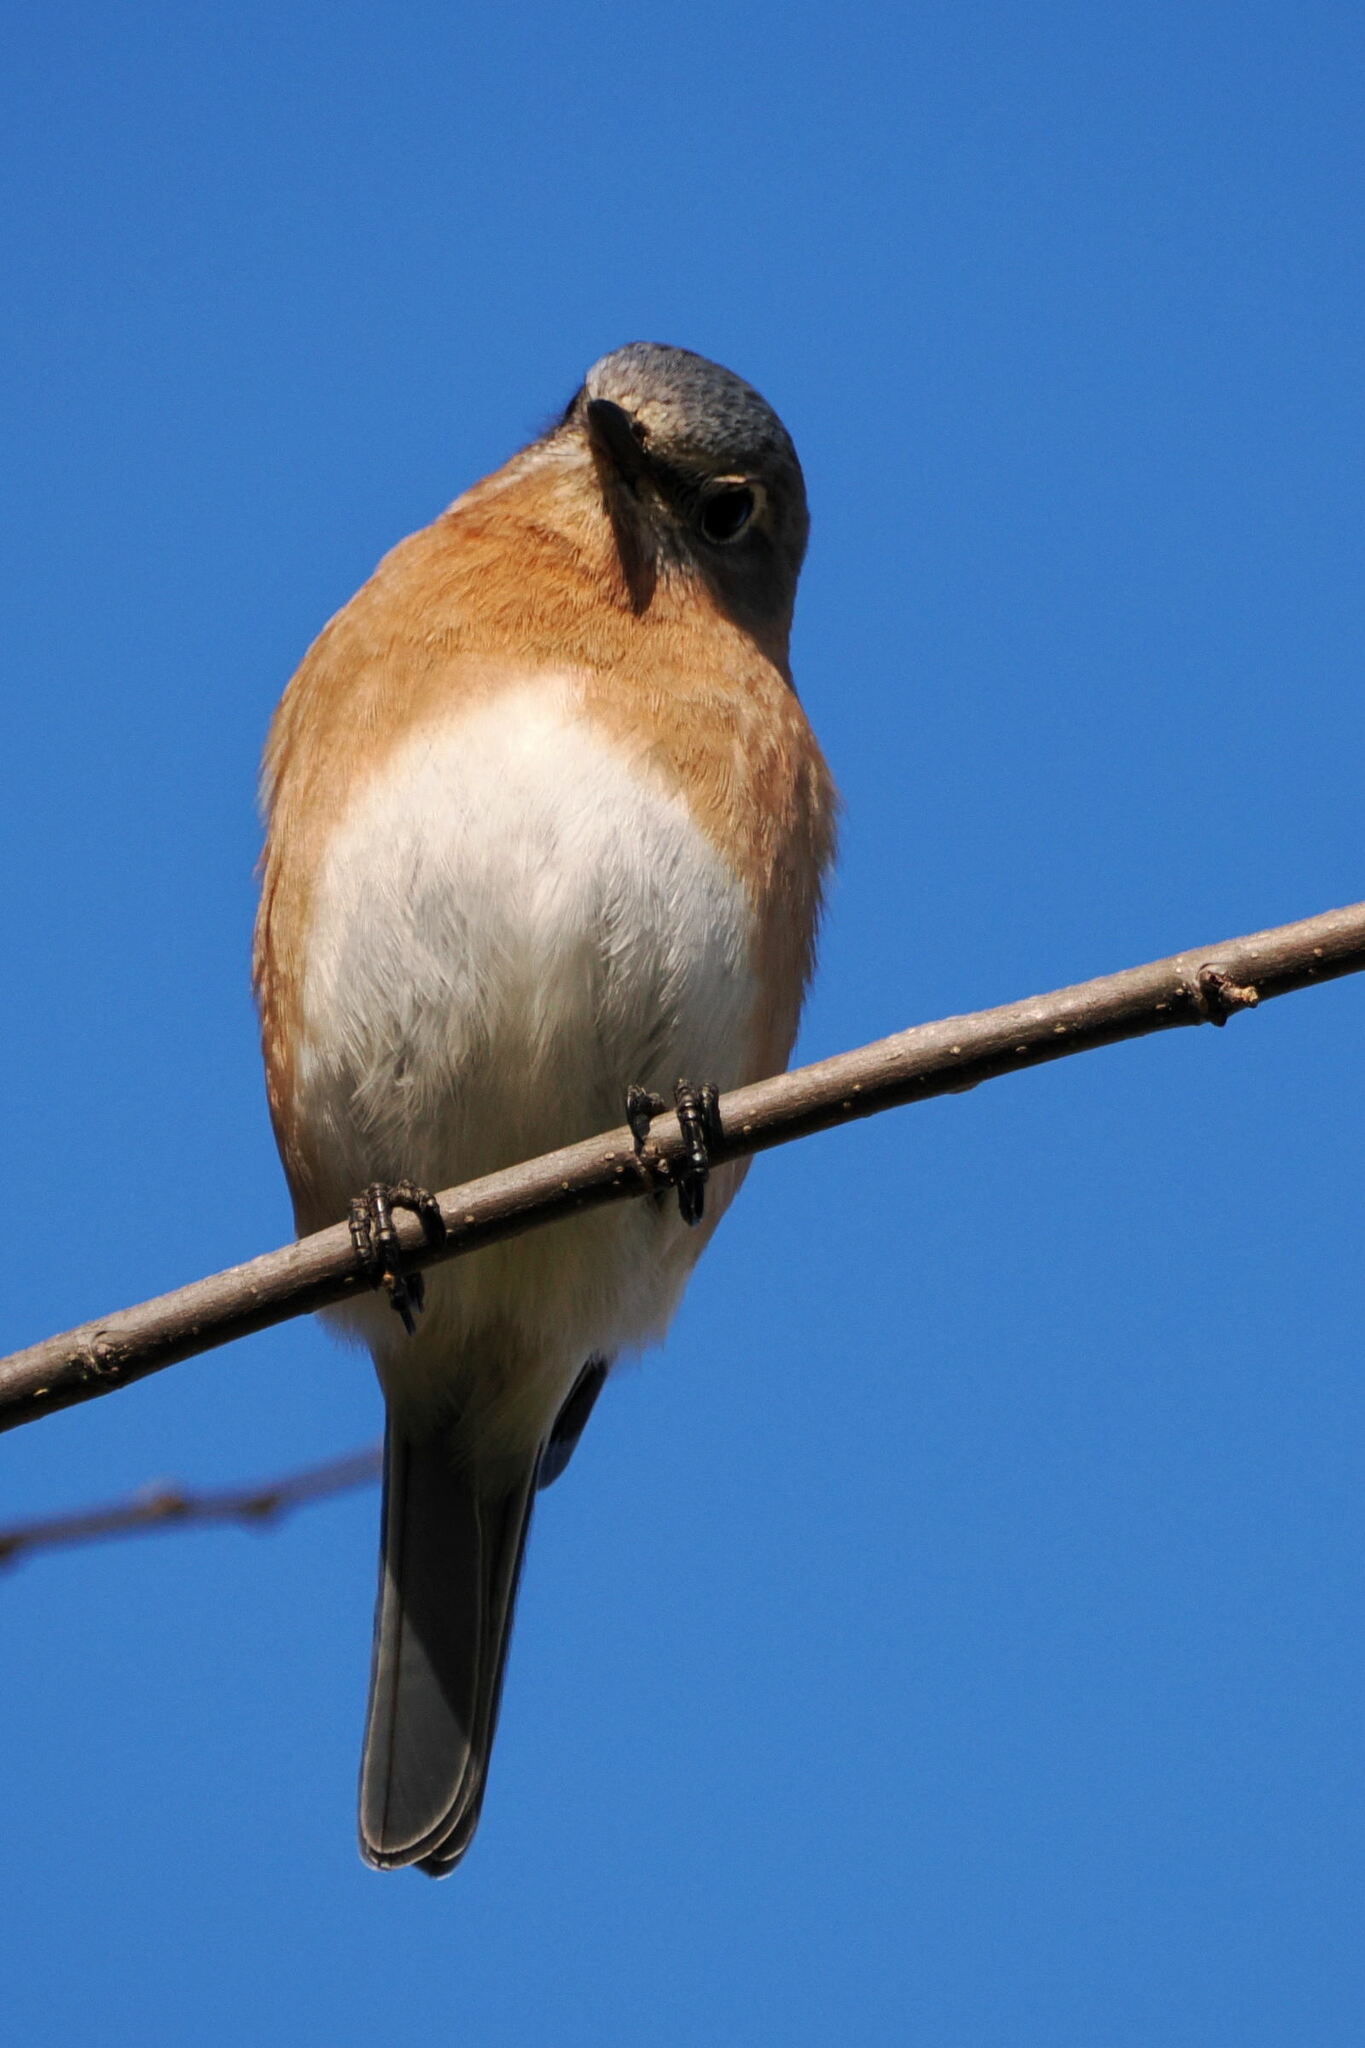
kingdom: Animalia
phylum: Chordata
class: Aves
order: Passeriformes
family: Turdidae
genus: Sialia
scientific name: Sialia sialis
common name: Eastern bluebird
